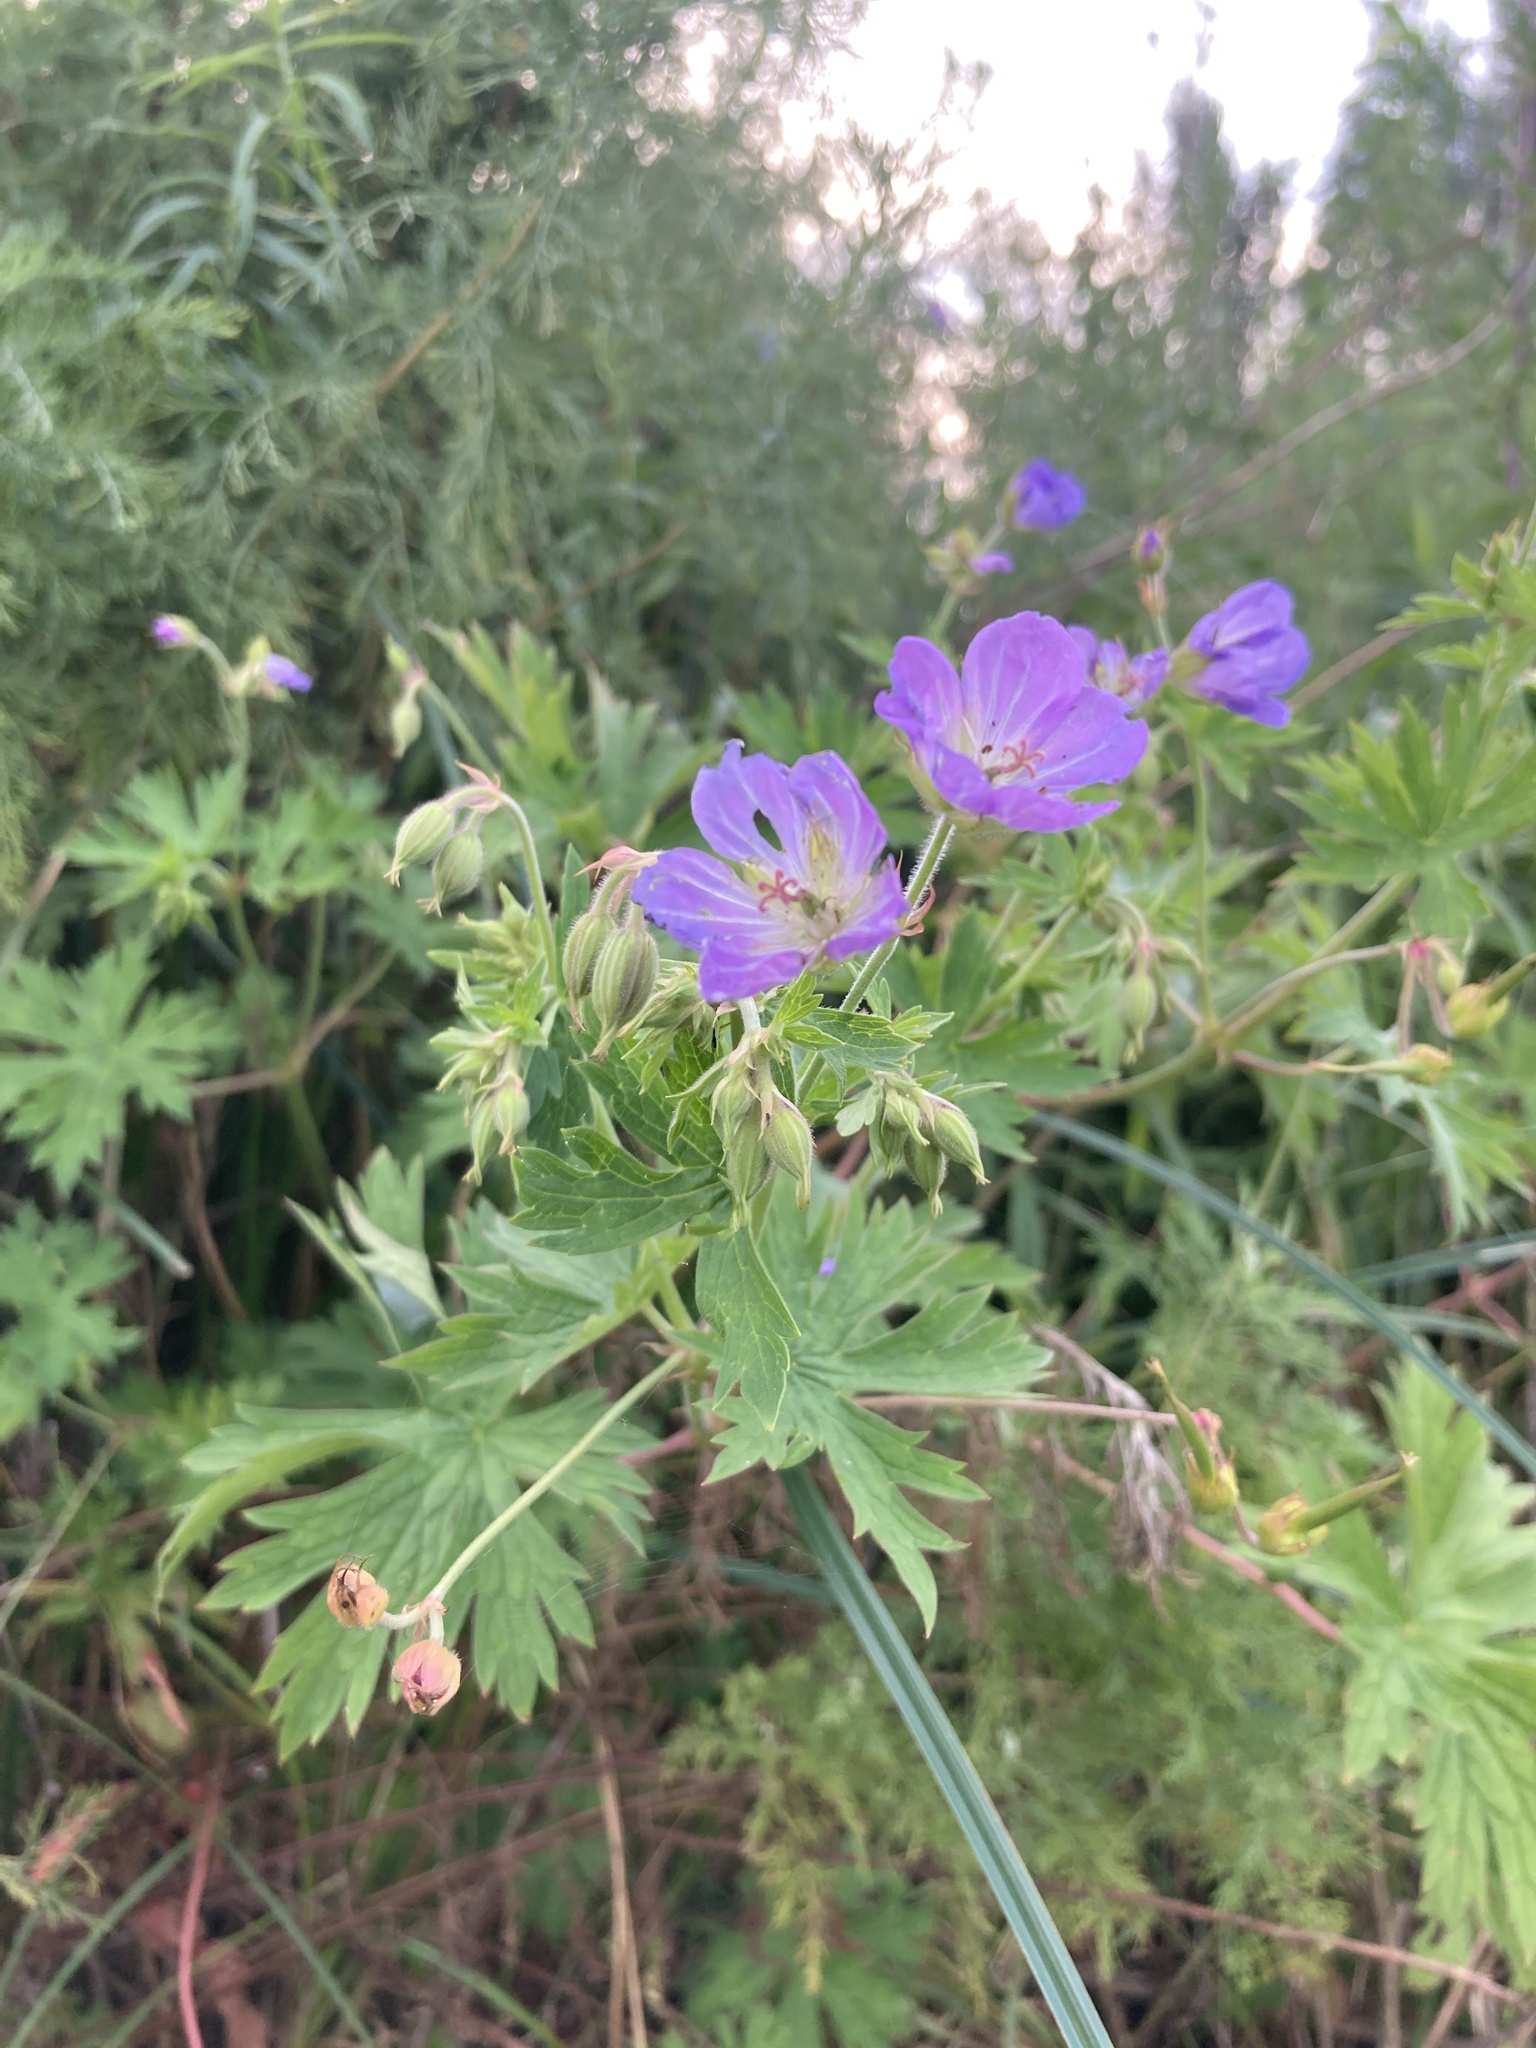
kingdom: Plantae
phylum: Tracheophyta
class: Magnoliopsida
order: Geraniales
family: Geraniaceae
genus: Geranium
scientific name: Geranium collinum
